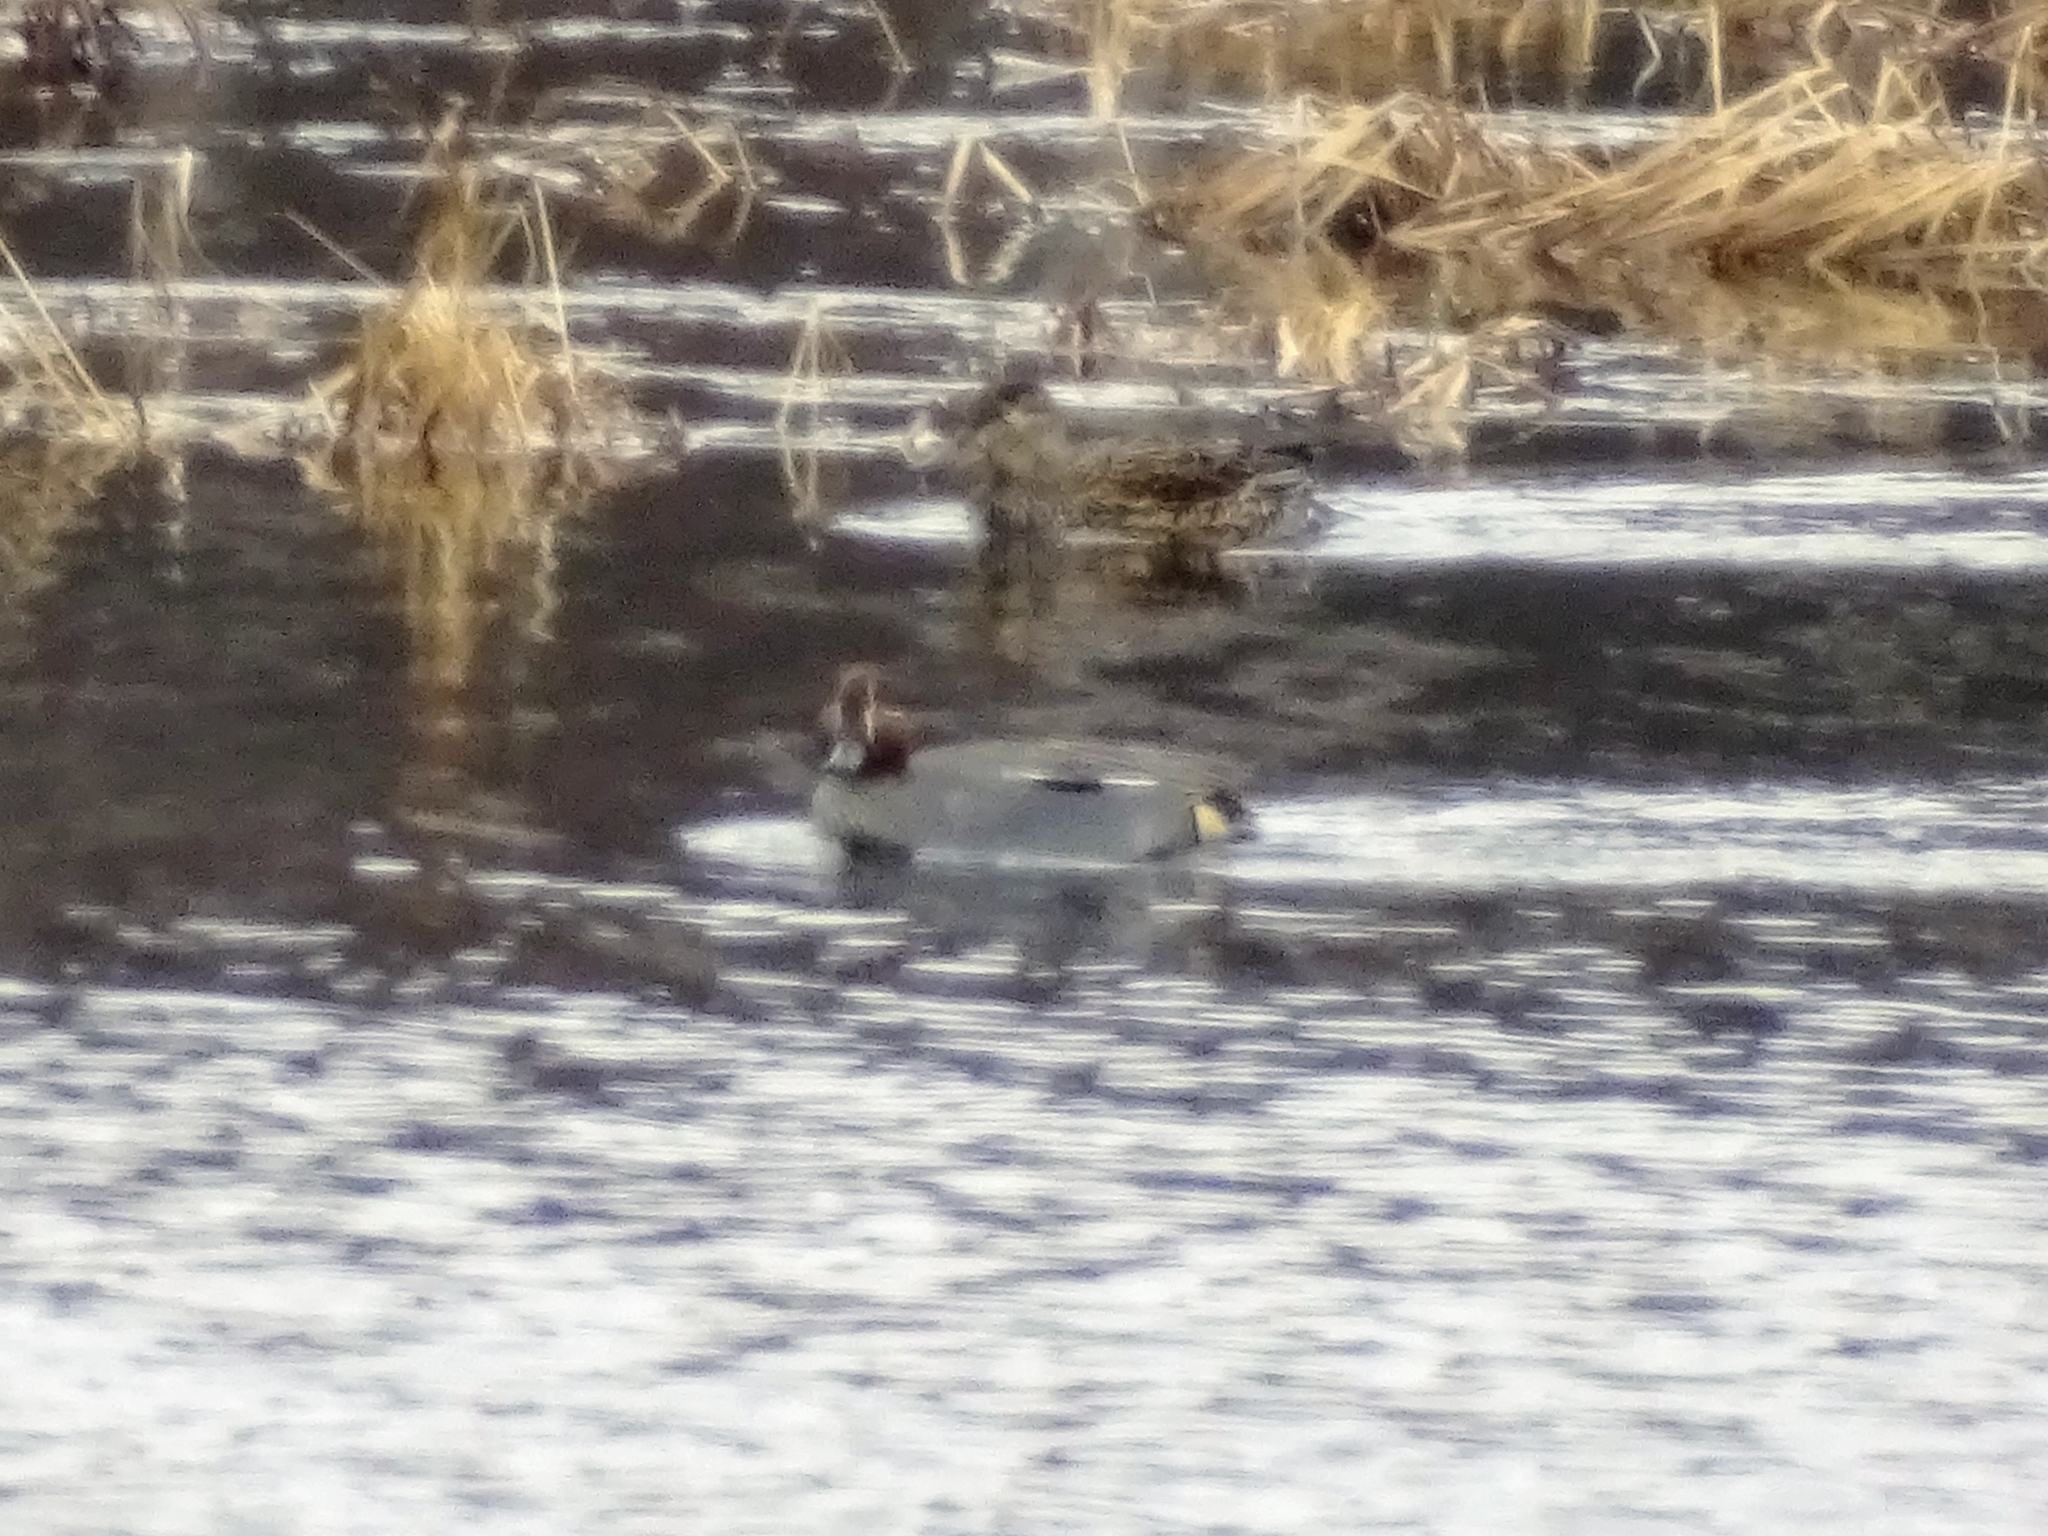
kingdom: Animalia
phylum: Chordata
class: Aves
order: Anseriformes
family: Anatidae
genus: Anas
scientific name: Anas crecca
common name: Eurasian teal
